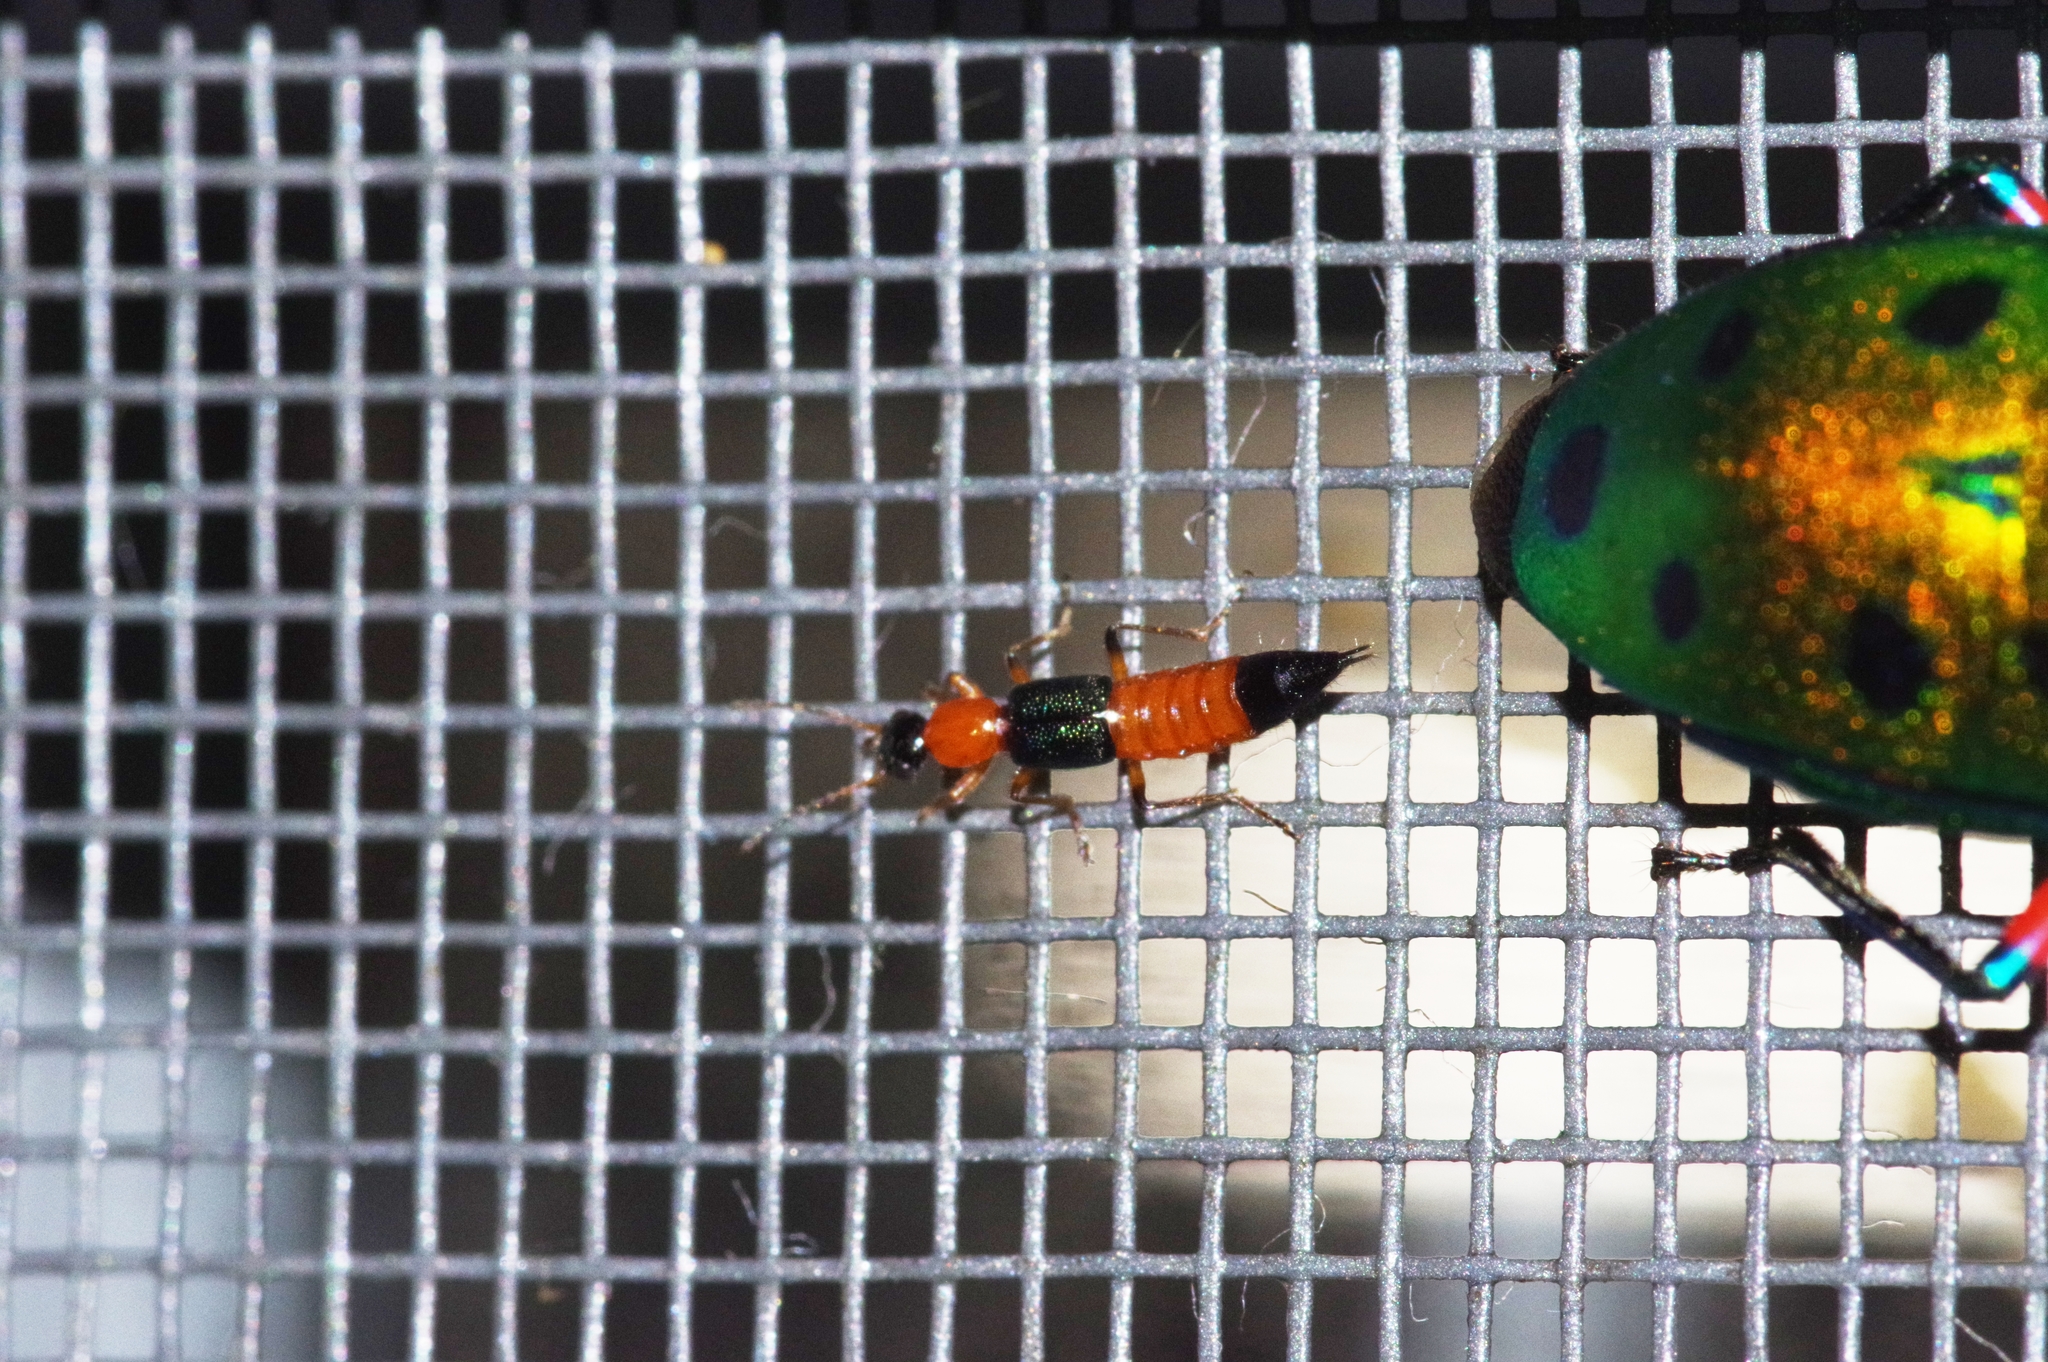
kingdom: Animalia
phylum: Arthropoda
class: Insecta
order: Coleoptera
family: Staphylinidae
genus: Paederus
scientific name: Paederus fuscipes
